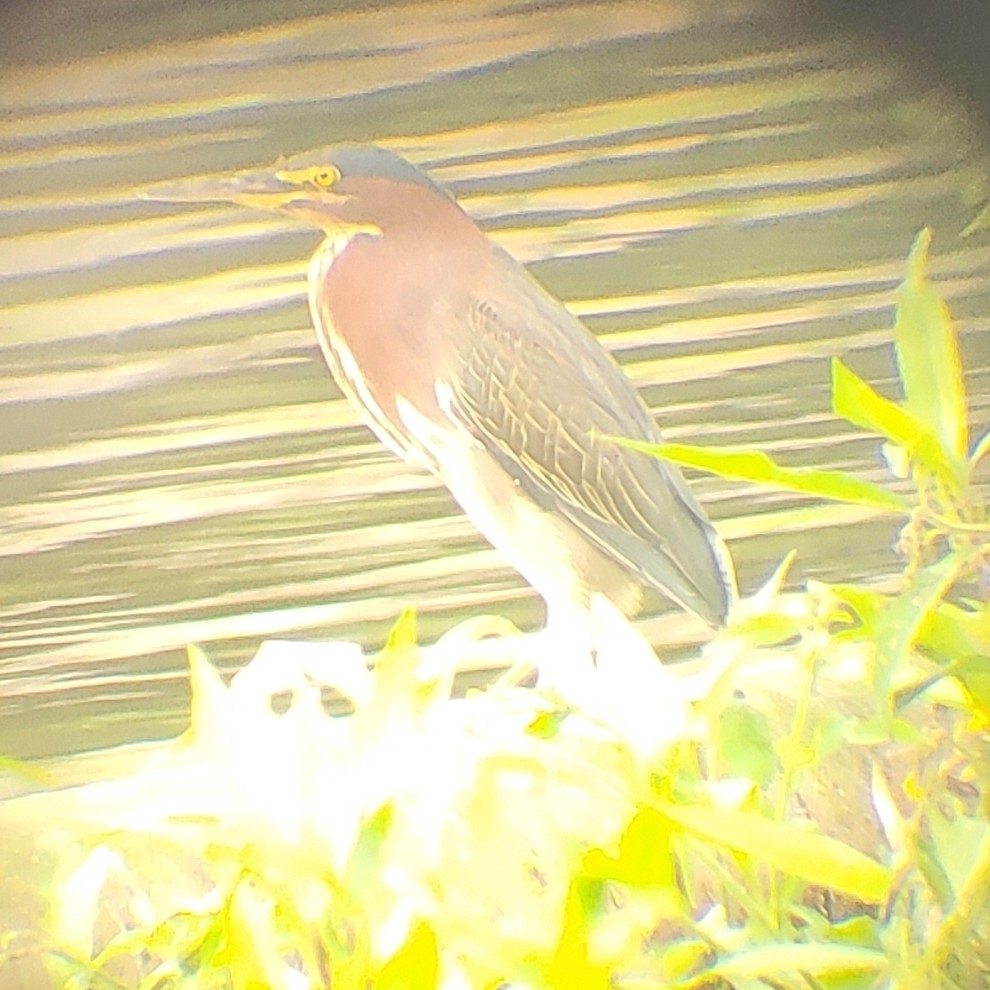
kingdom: Animalia
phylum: Chordata
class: Aves
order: Pelecaniformes
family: Ardeidae
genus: Butorides
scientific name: Butorides virescens
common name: Green heron
